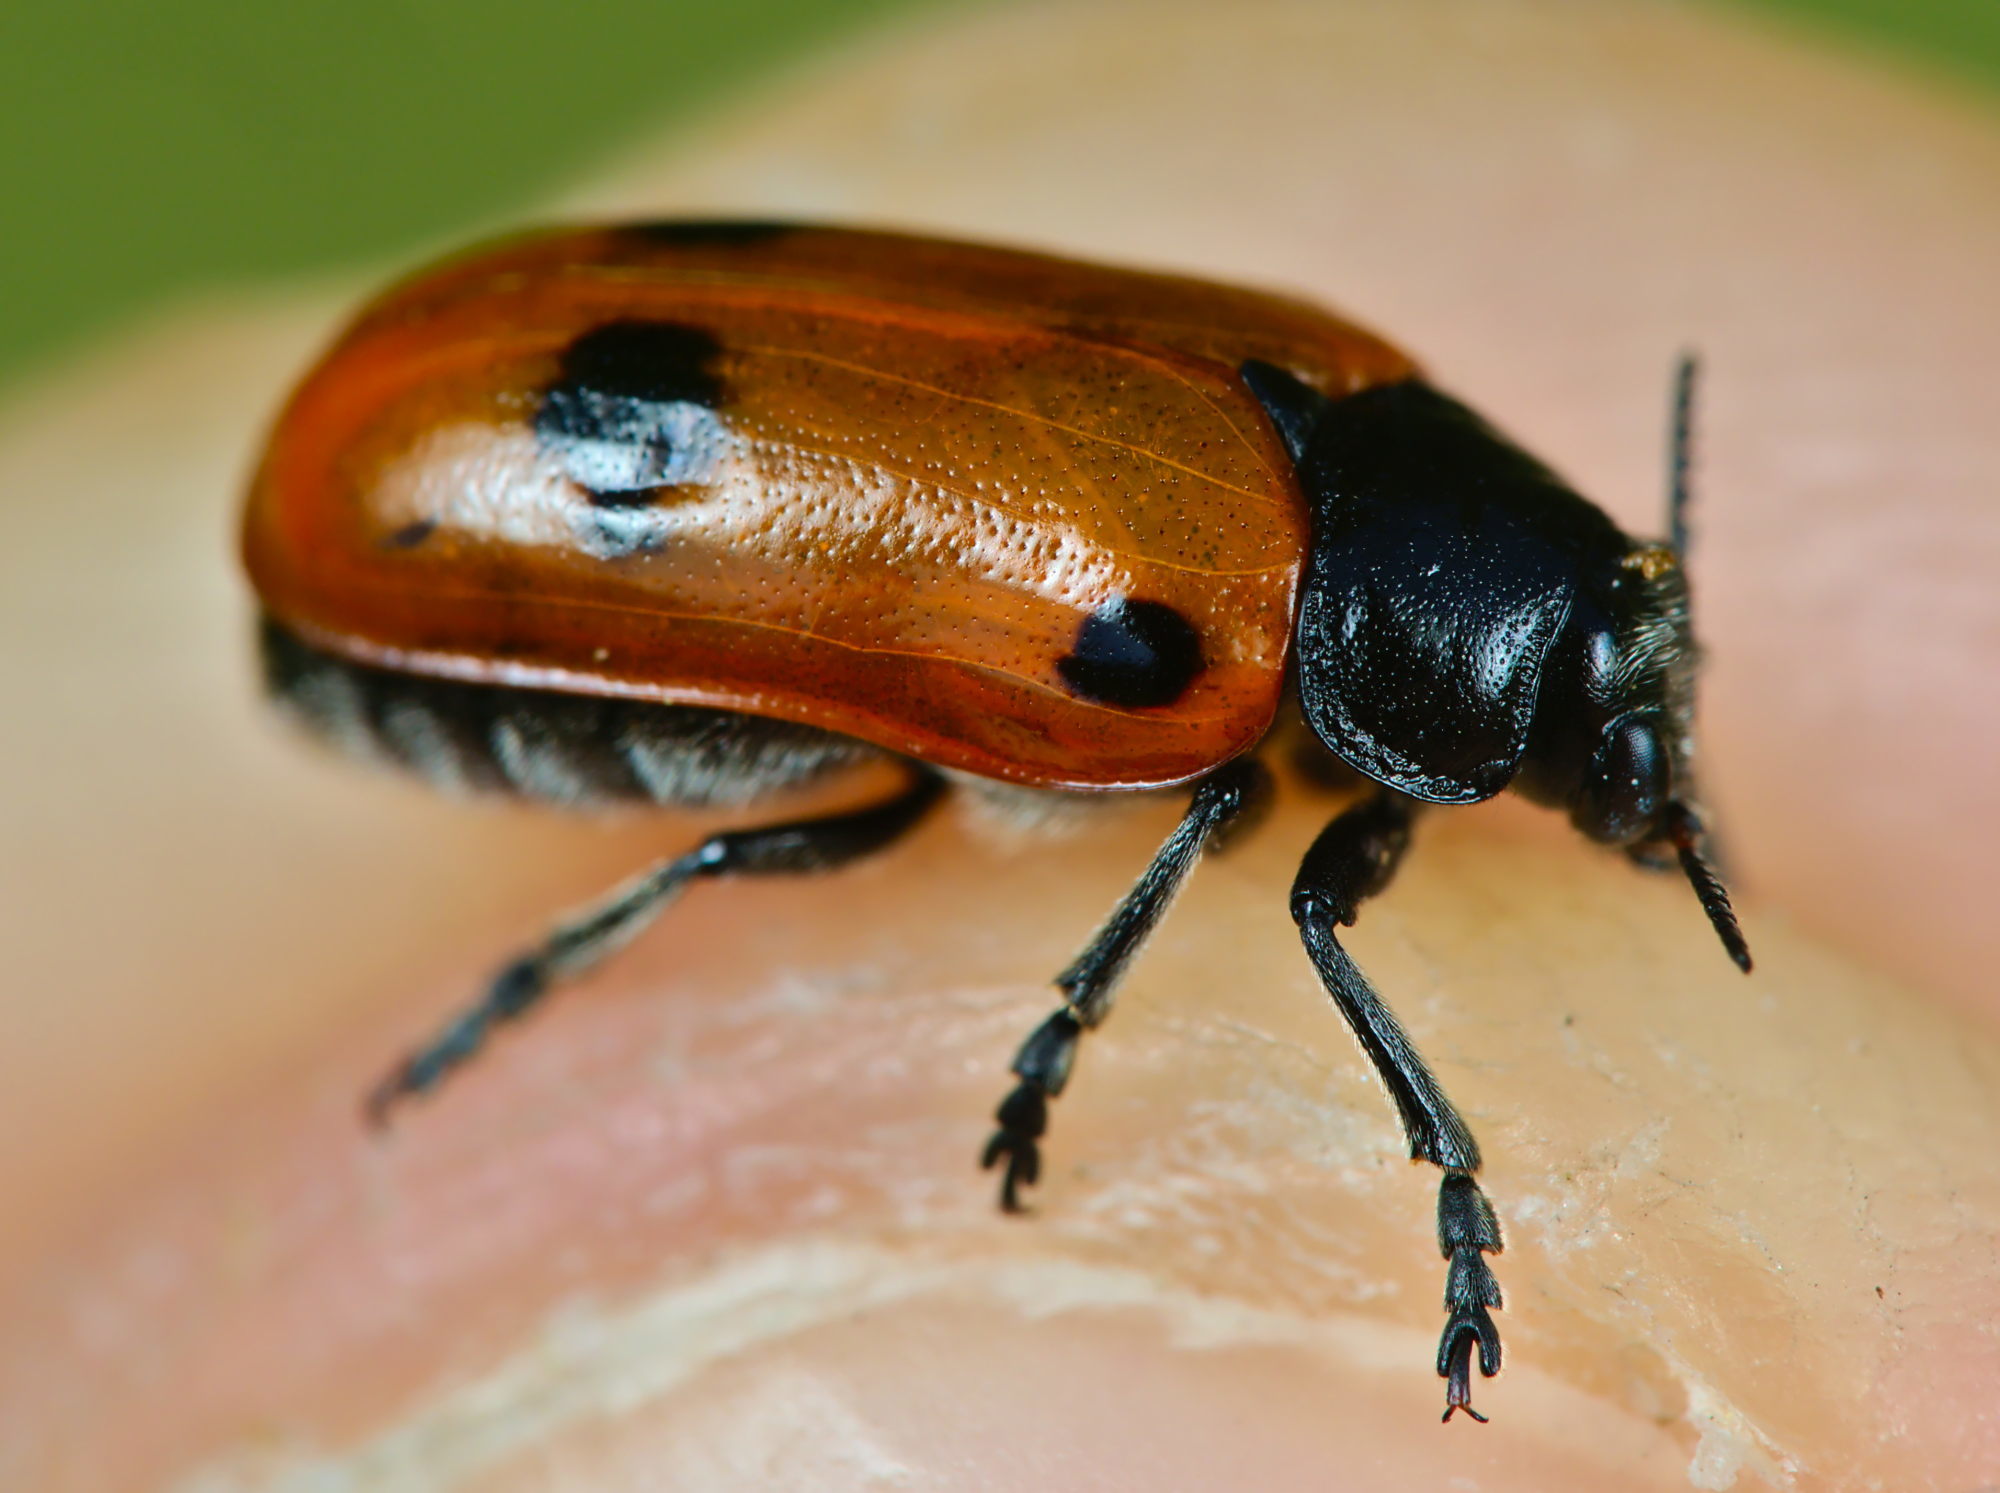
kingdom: Animalia
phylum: Arthropoda
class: Insecta
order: Coleoptera
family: Chrysomelidae
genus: Clytra
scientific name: Clytra quadripunctata
